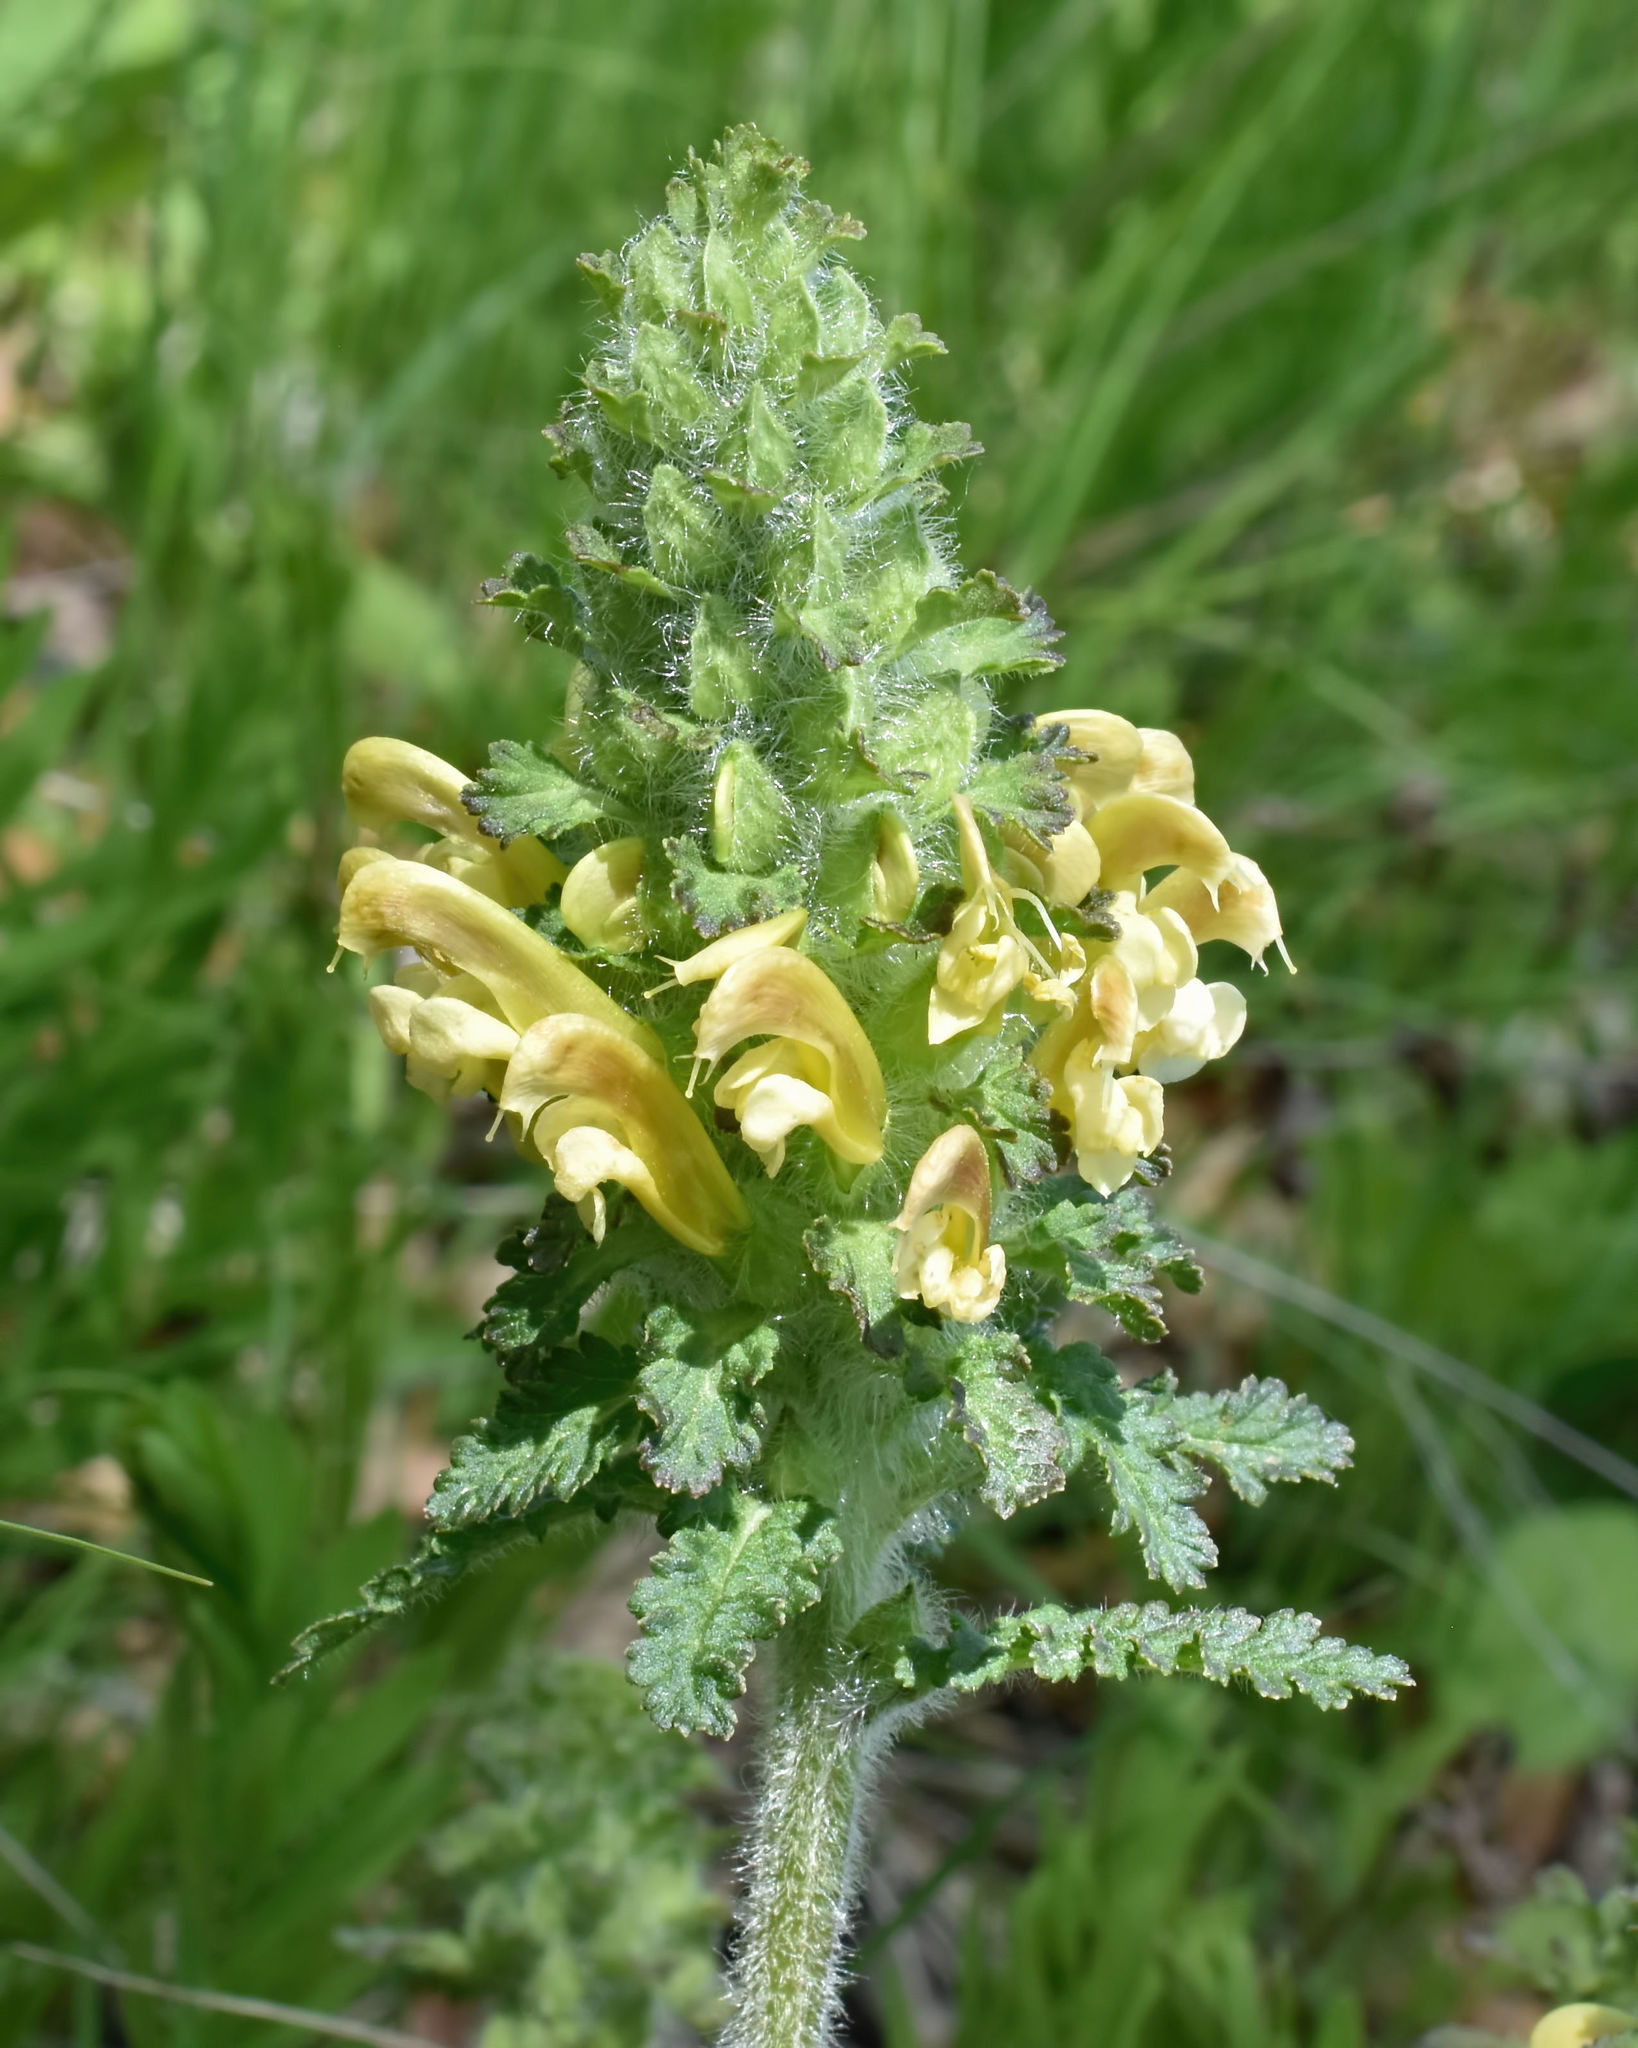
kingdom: Plantae
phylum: Tracheophyta
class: Magnoliopsida
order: Lamiales
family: Orobanchaceae
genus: Pedicularis
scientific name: Pedicularis canadensis
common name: Early lousewort
